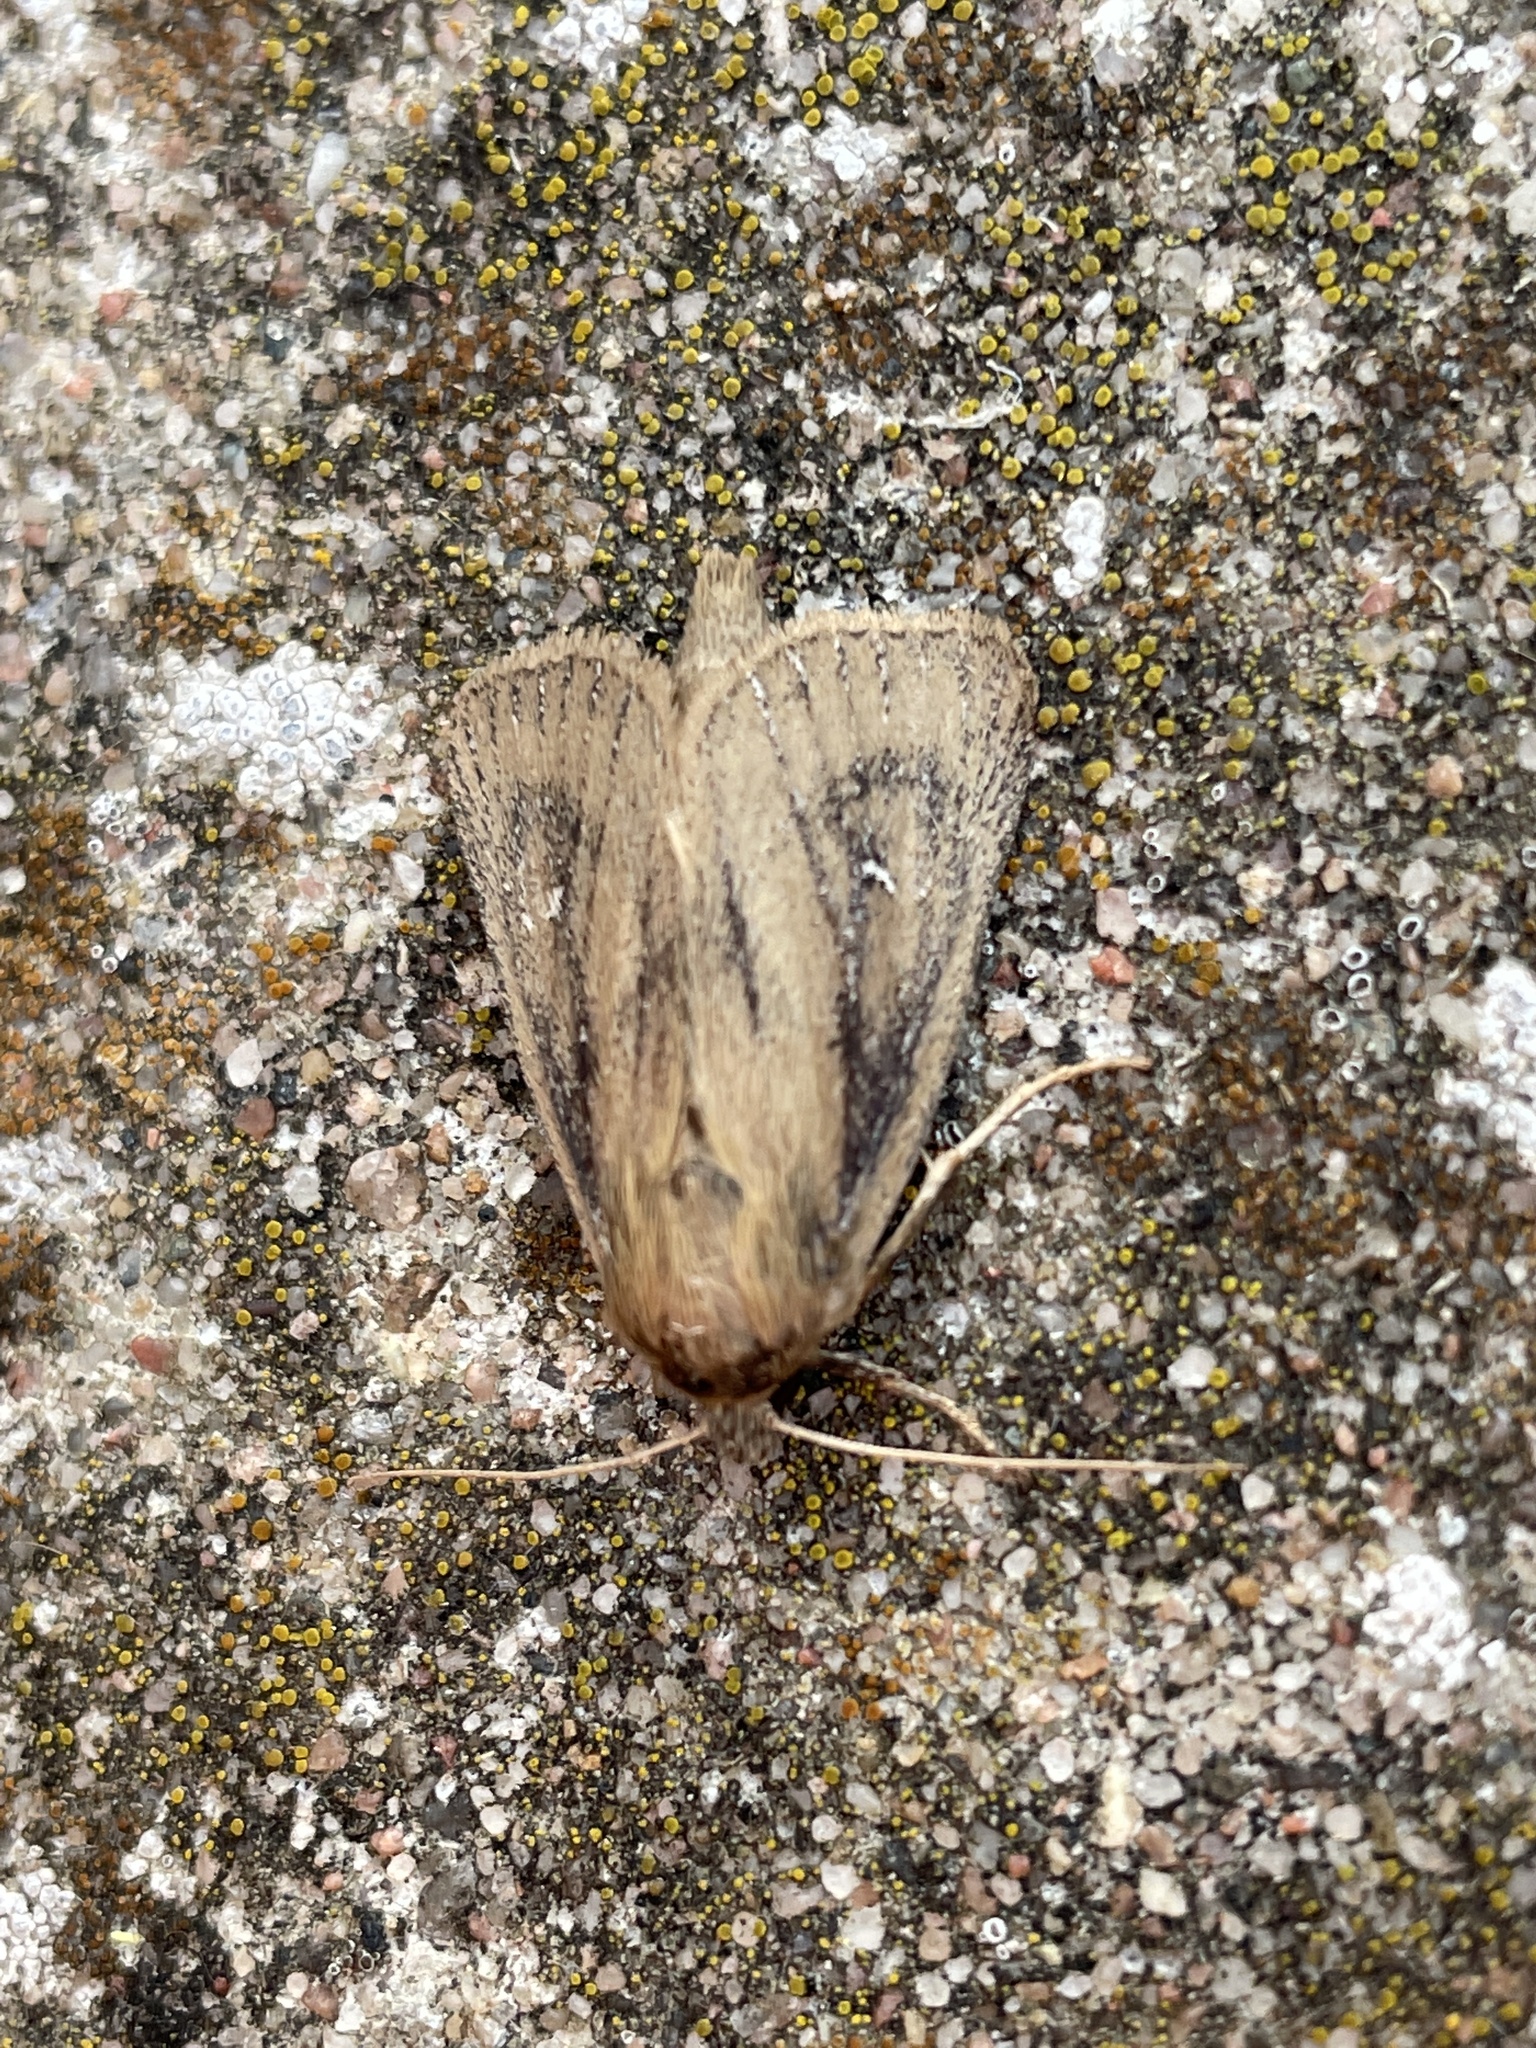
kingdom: Animalia
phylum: Arthropoda
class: Insecta
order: Lepidoptera
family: Noctuidae
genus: Globia
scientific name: Globia sparganii
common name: Webb's wainscot
